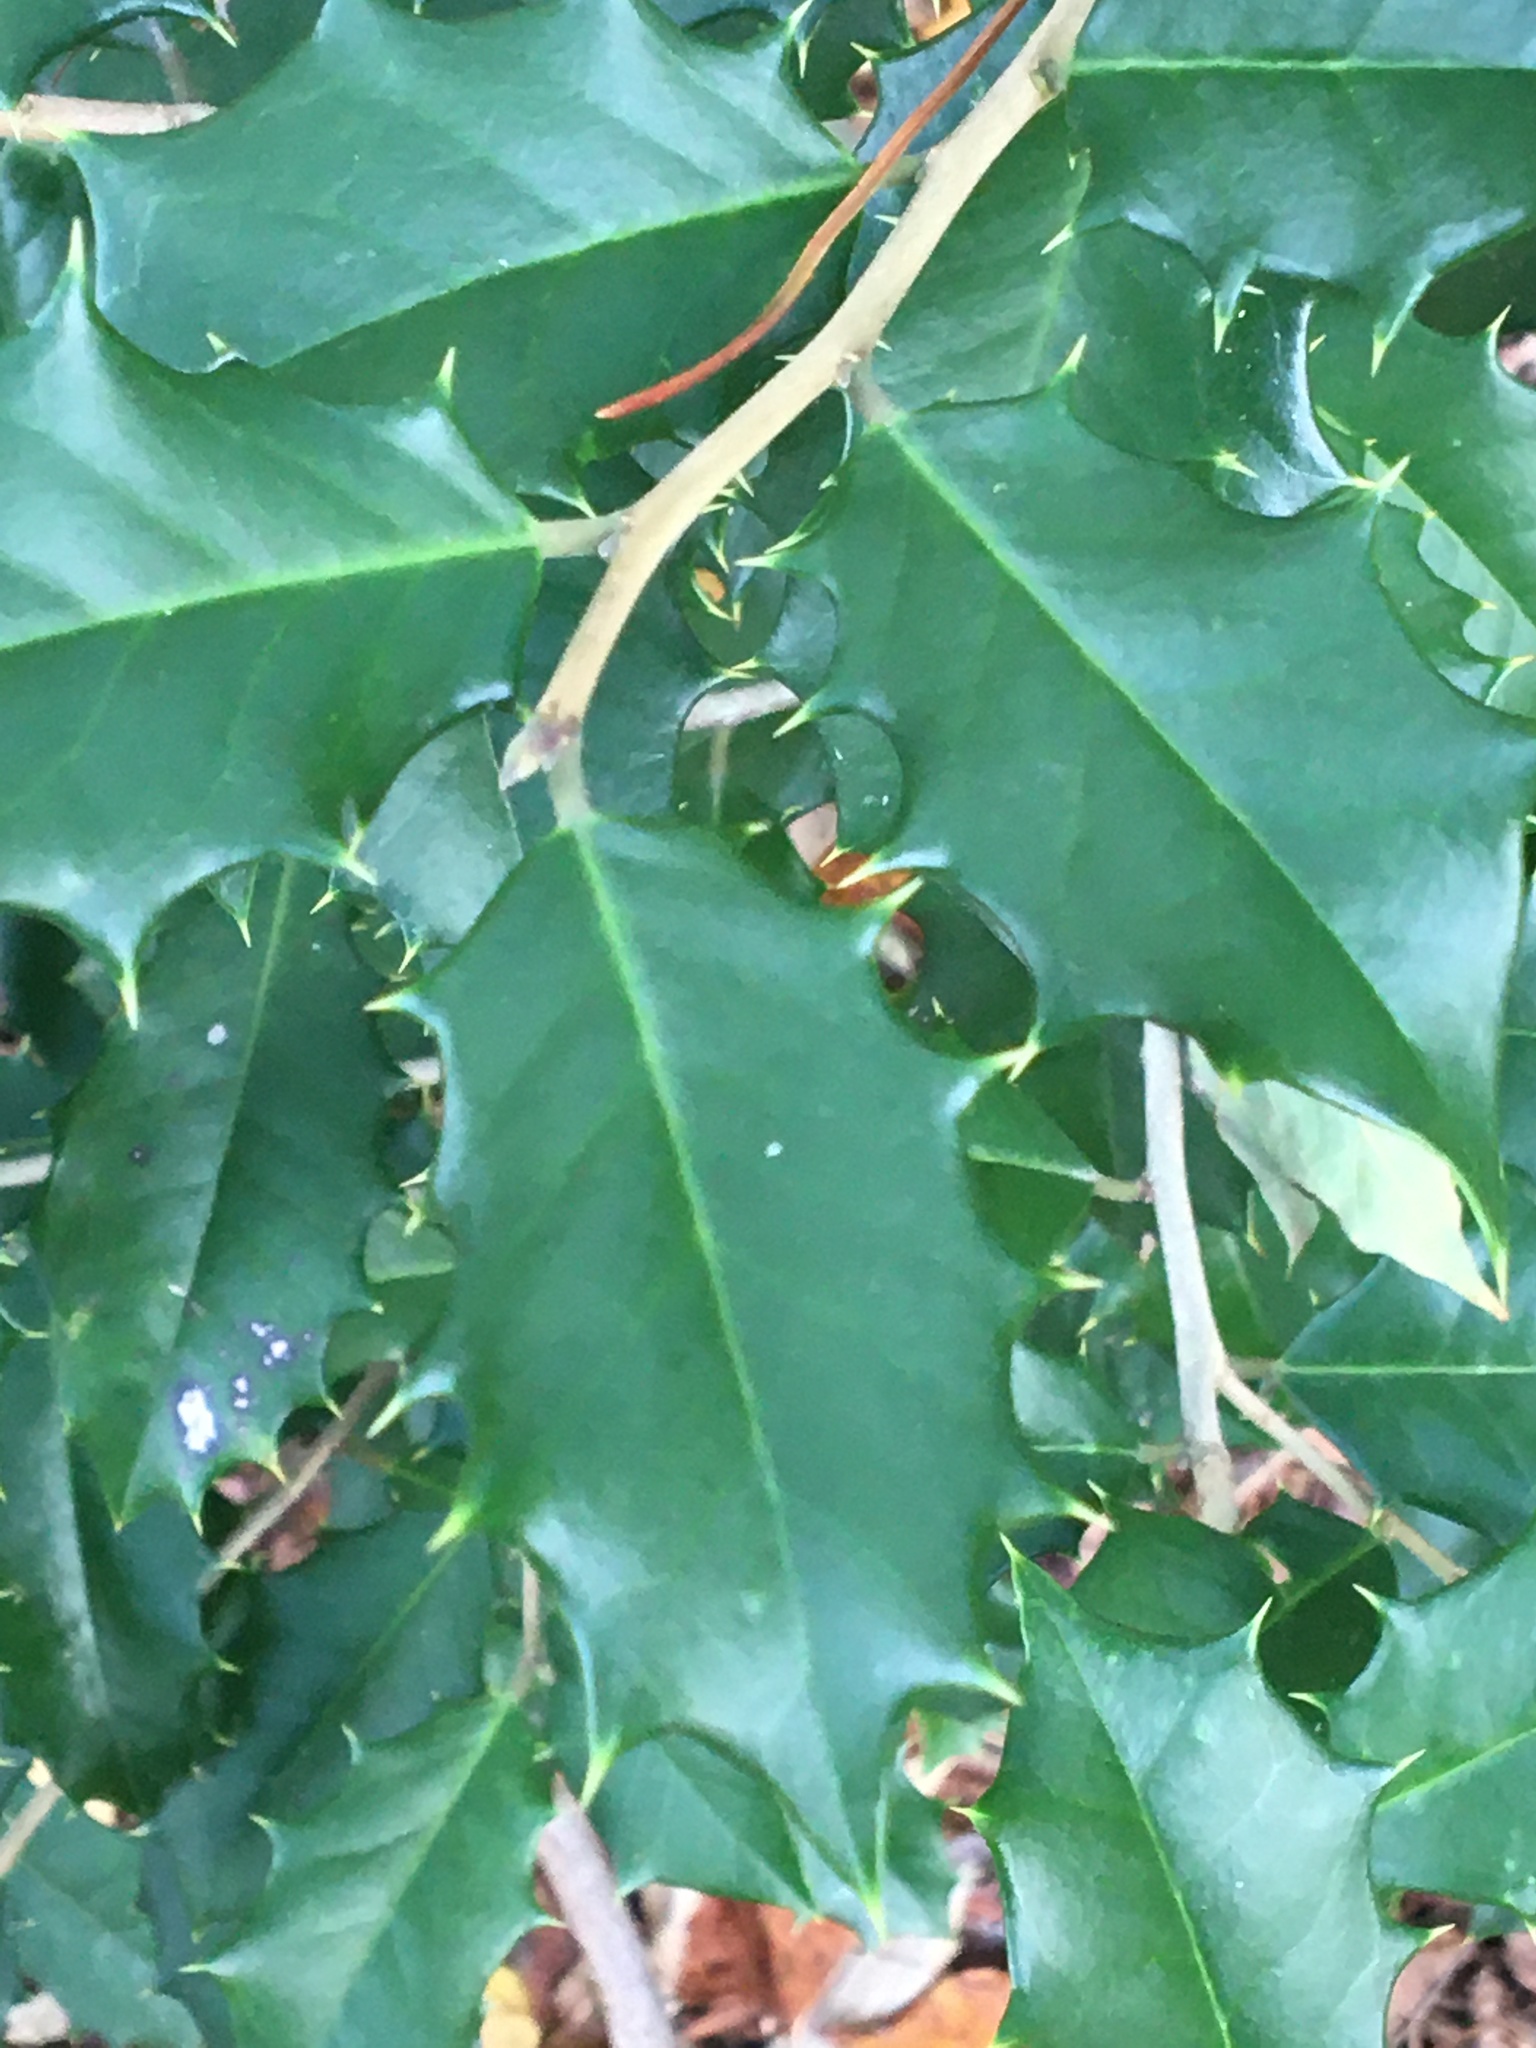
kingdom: Plantae
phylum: Tracheophyta
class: Magnoliopsida
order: Aquifoliales
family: Aquifoliaceae
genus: Ilex
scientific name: Ilex opaca
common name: American holly
